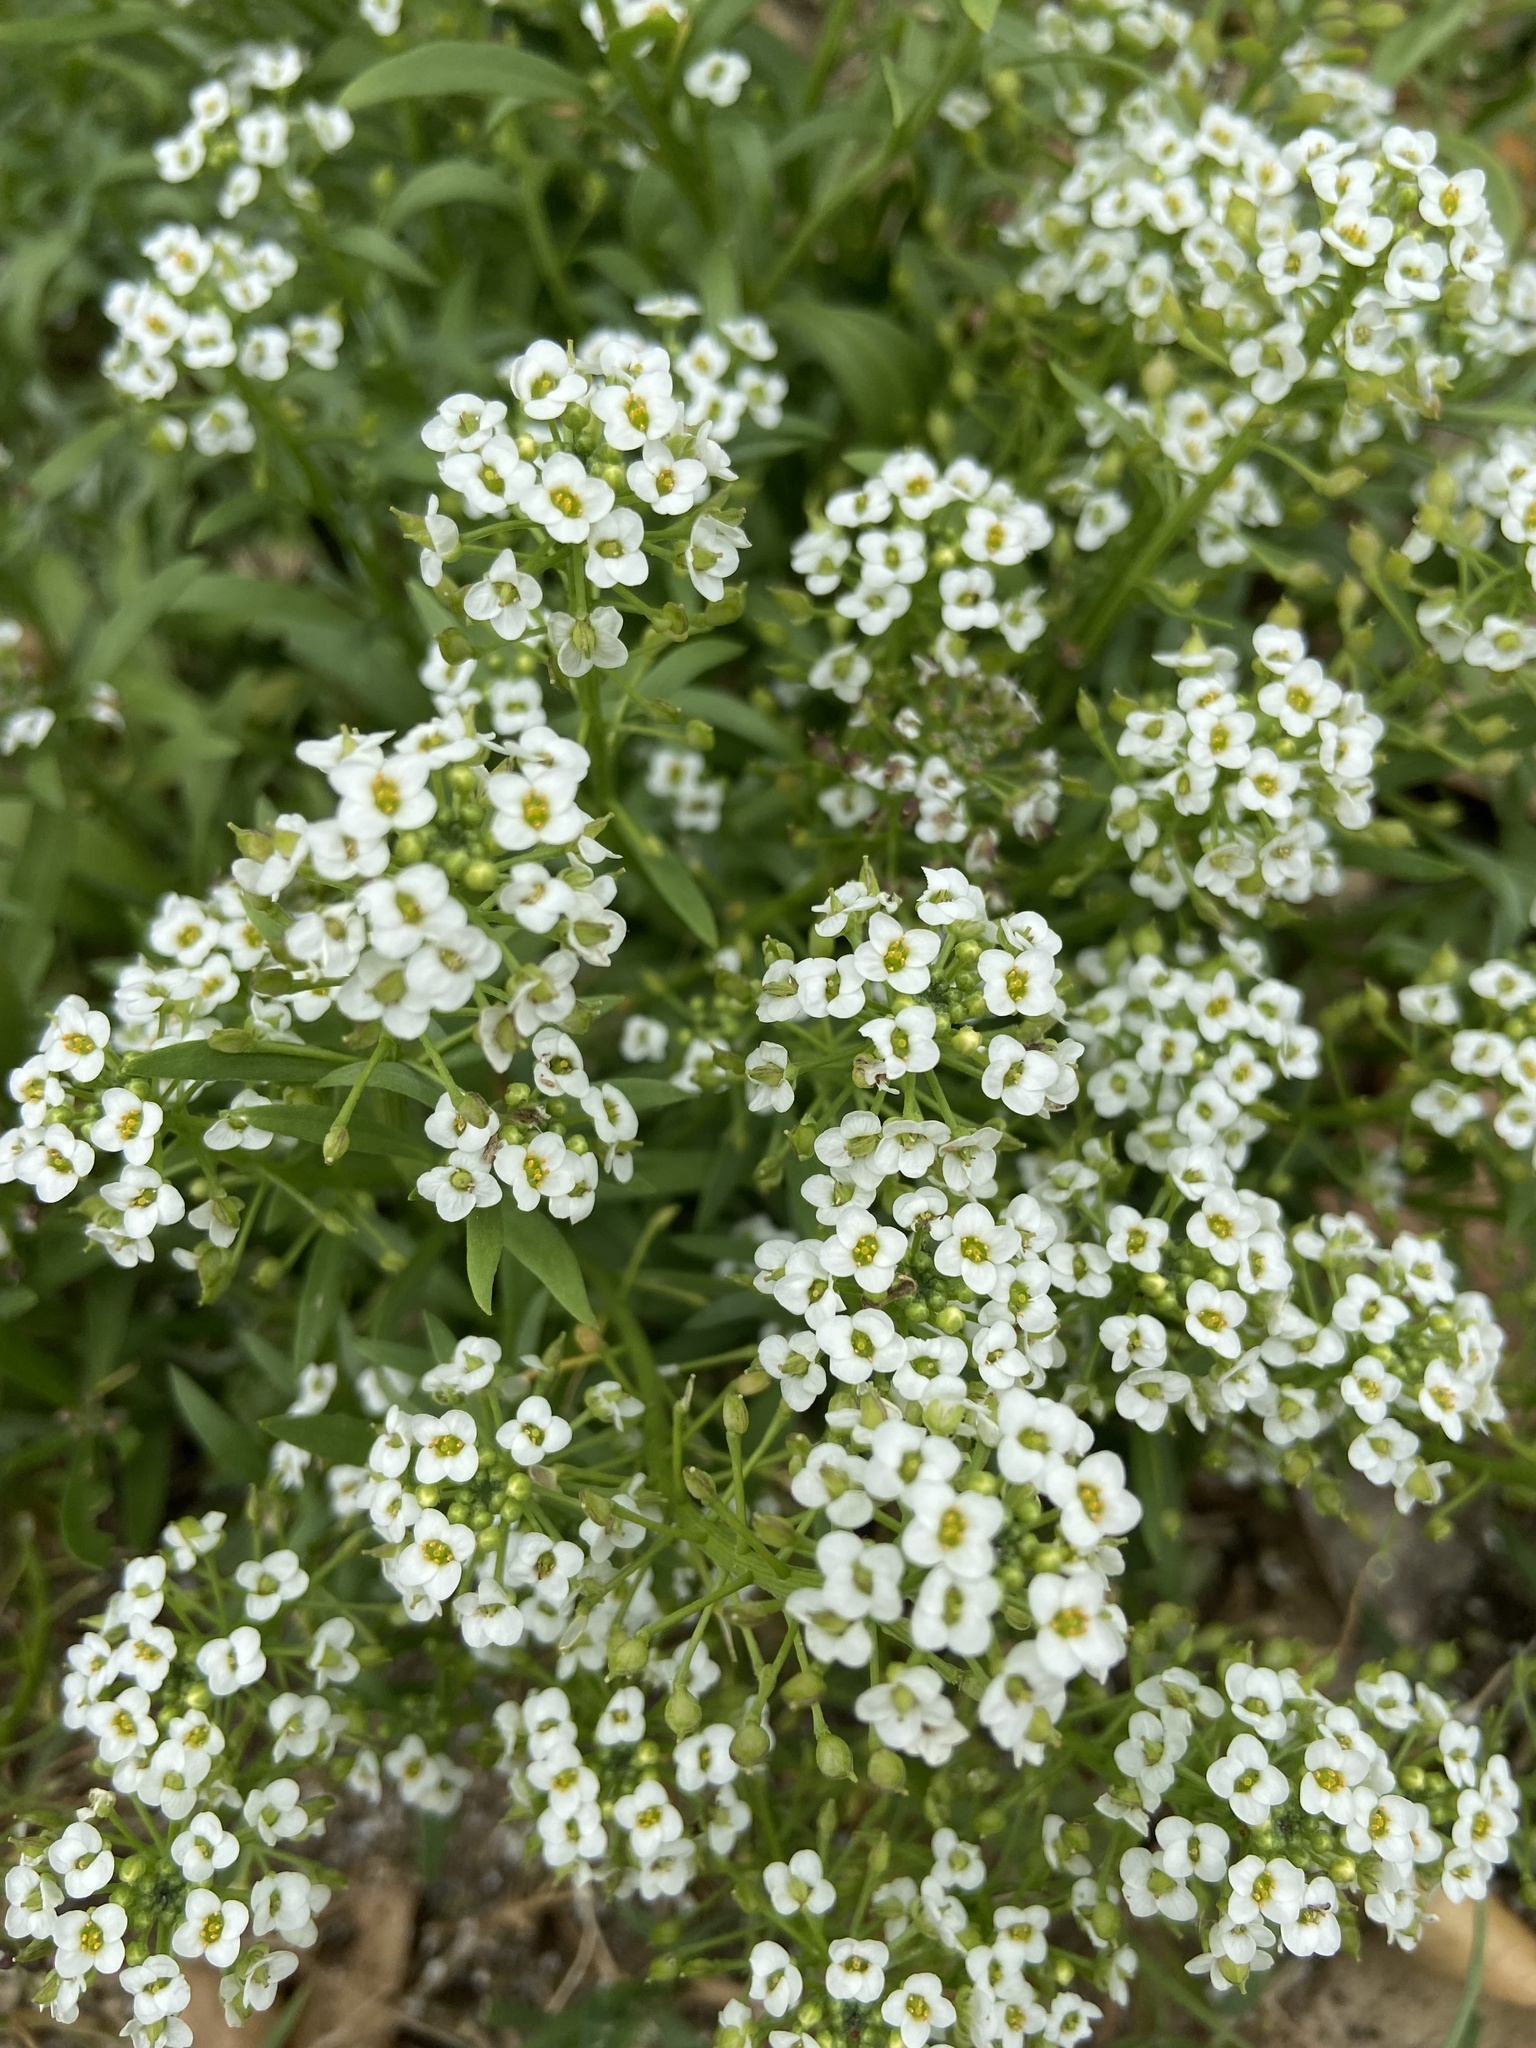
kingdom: Plantae
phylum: Tracheophyta
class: Magnoliopsida
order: Brassicales
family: Brassicaceae
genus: Lobularia
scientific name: Lobularia maritima
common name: Sweet alison
